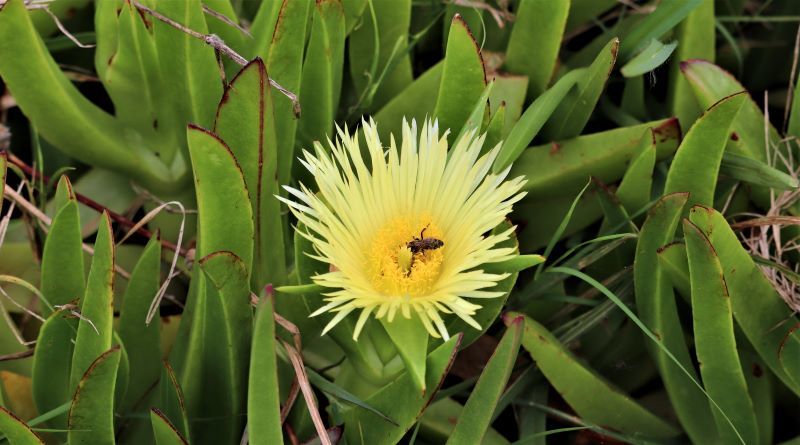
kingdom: Plantae
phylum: Tracheophyta
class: Magnoliopsida
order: Caryophyllales
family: Aizoaceae
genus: Carpobrotus
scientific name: Carpobrotus edulis
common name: Hottentot-fig
